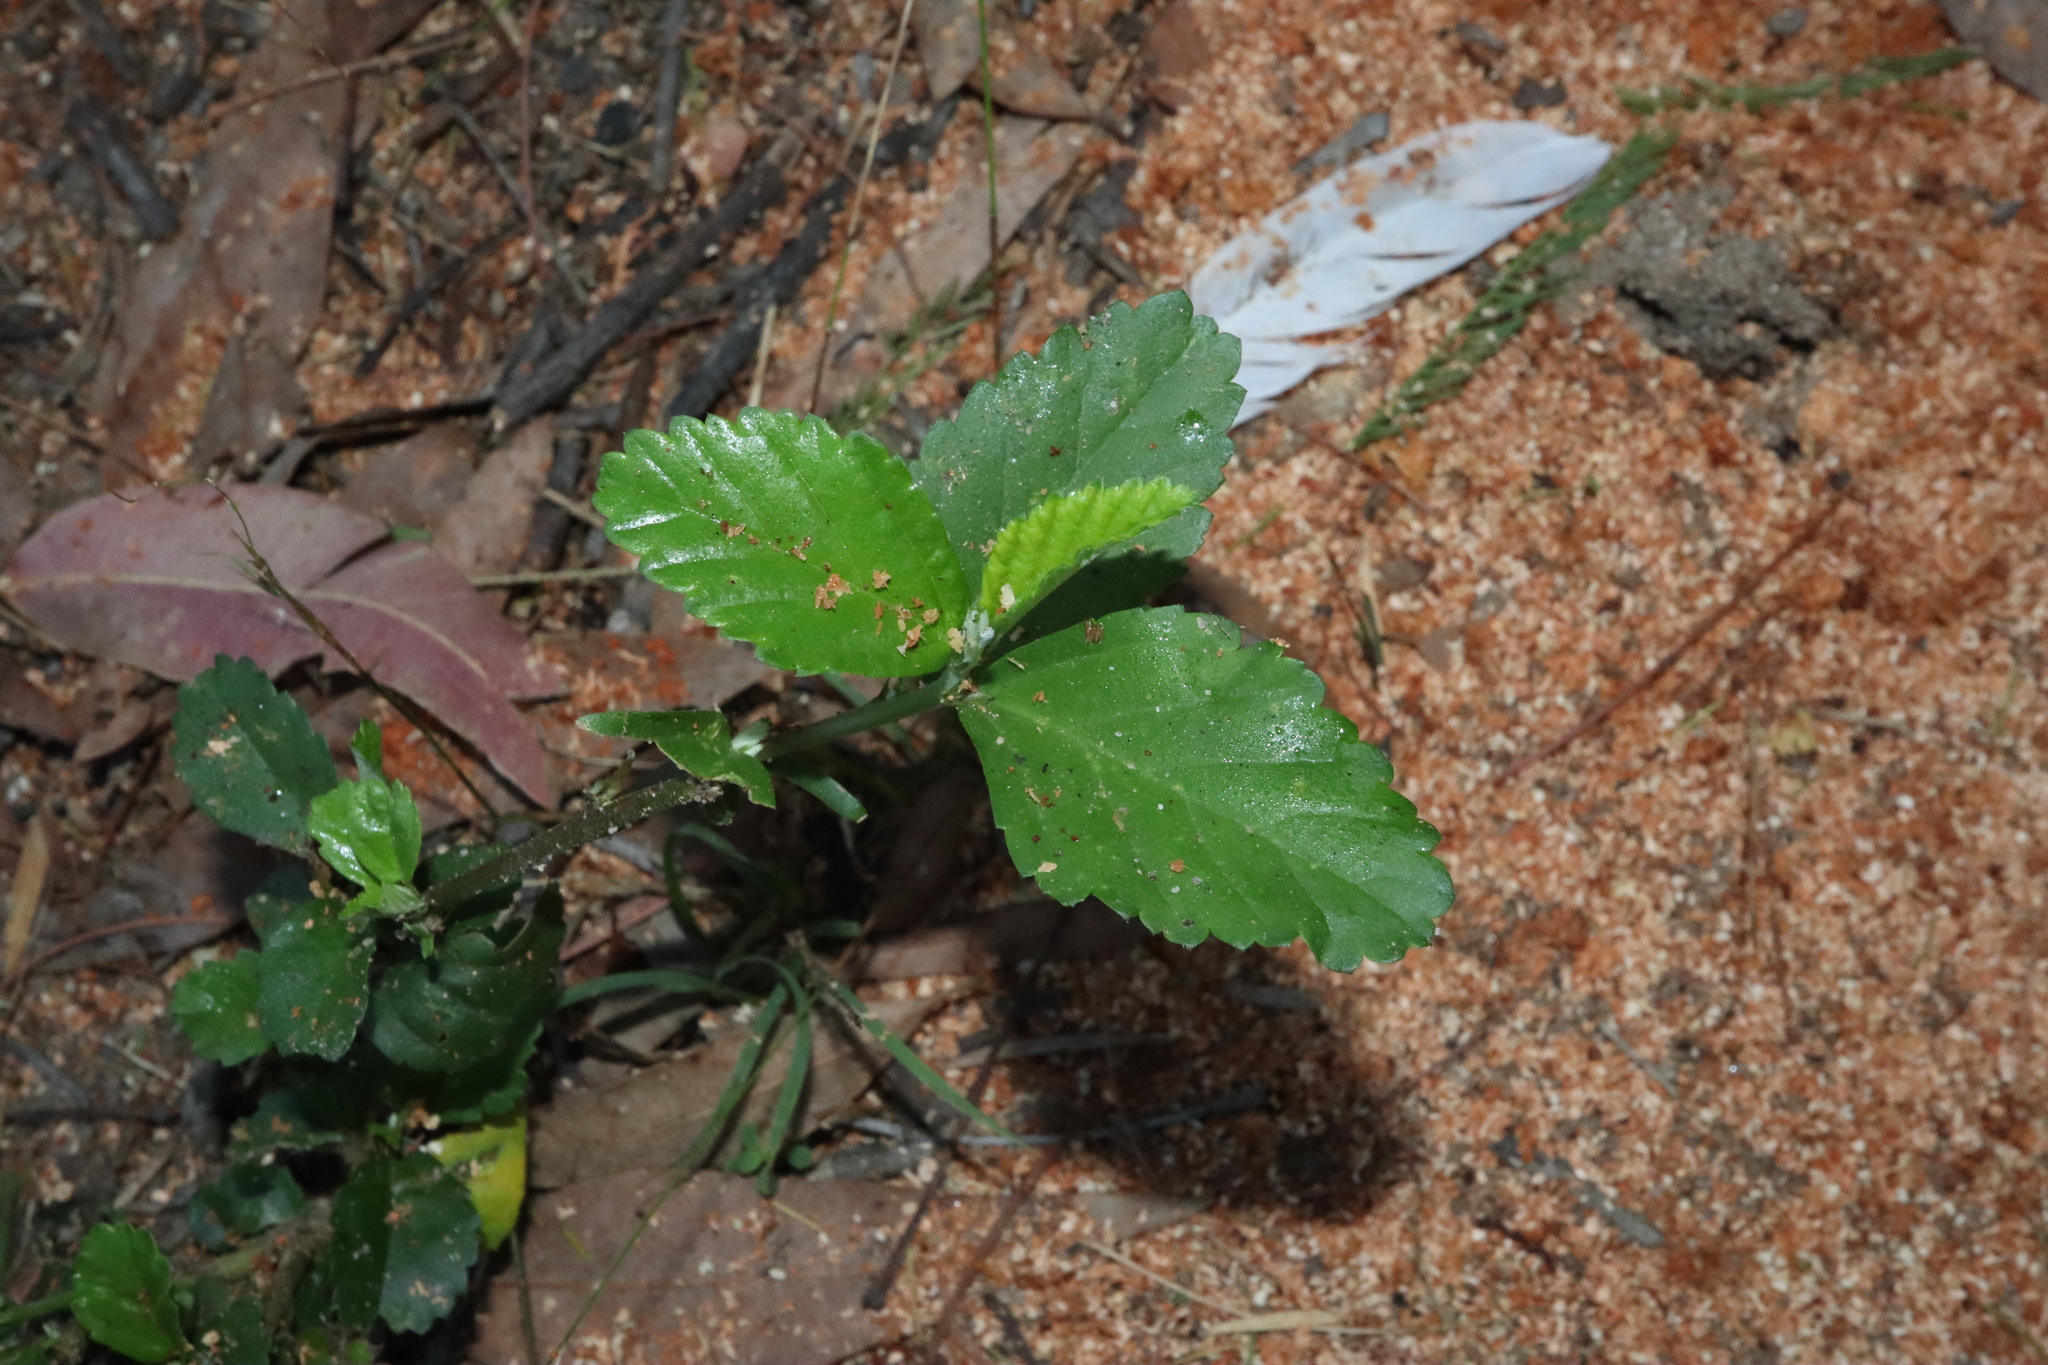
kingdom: Plantae
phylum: Tracheophyta
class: Magnoliopsida
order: Malvales
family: Malvaceae
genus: Sida
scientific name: Sida rhombifolia
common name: Queensland-hemp
